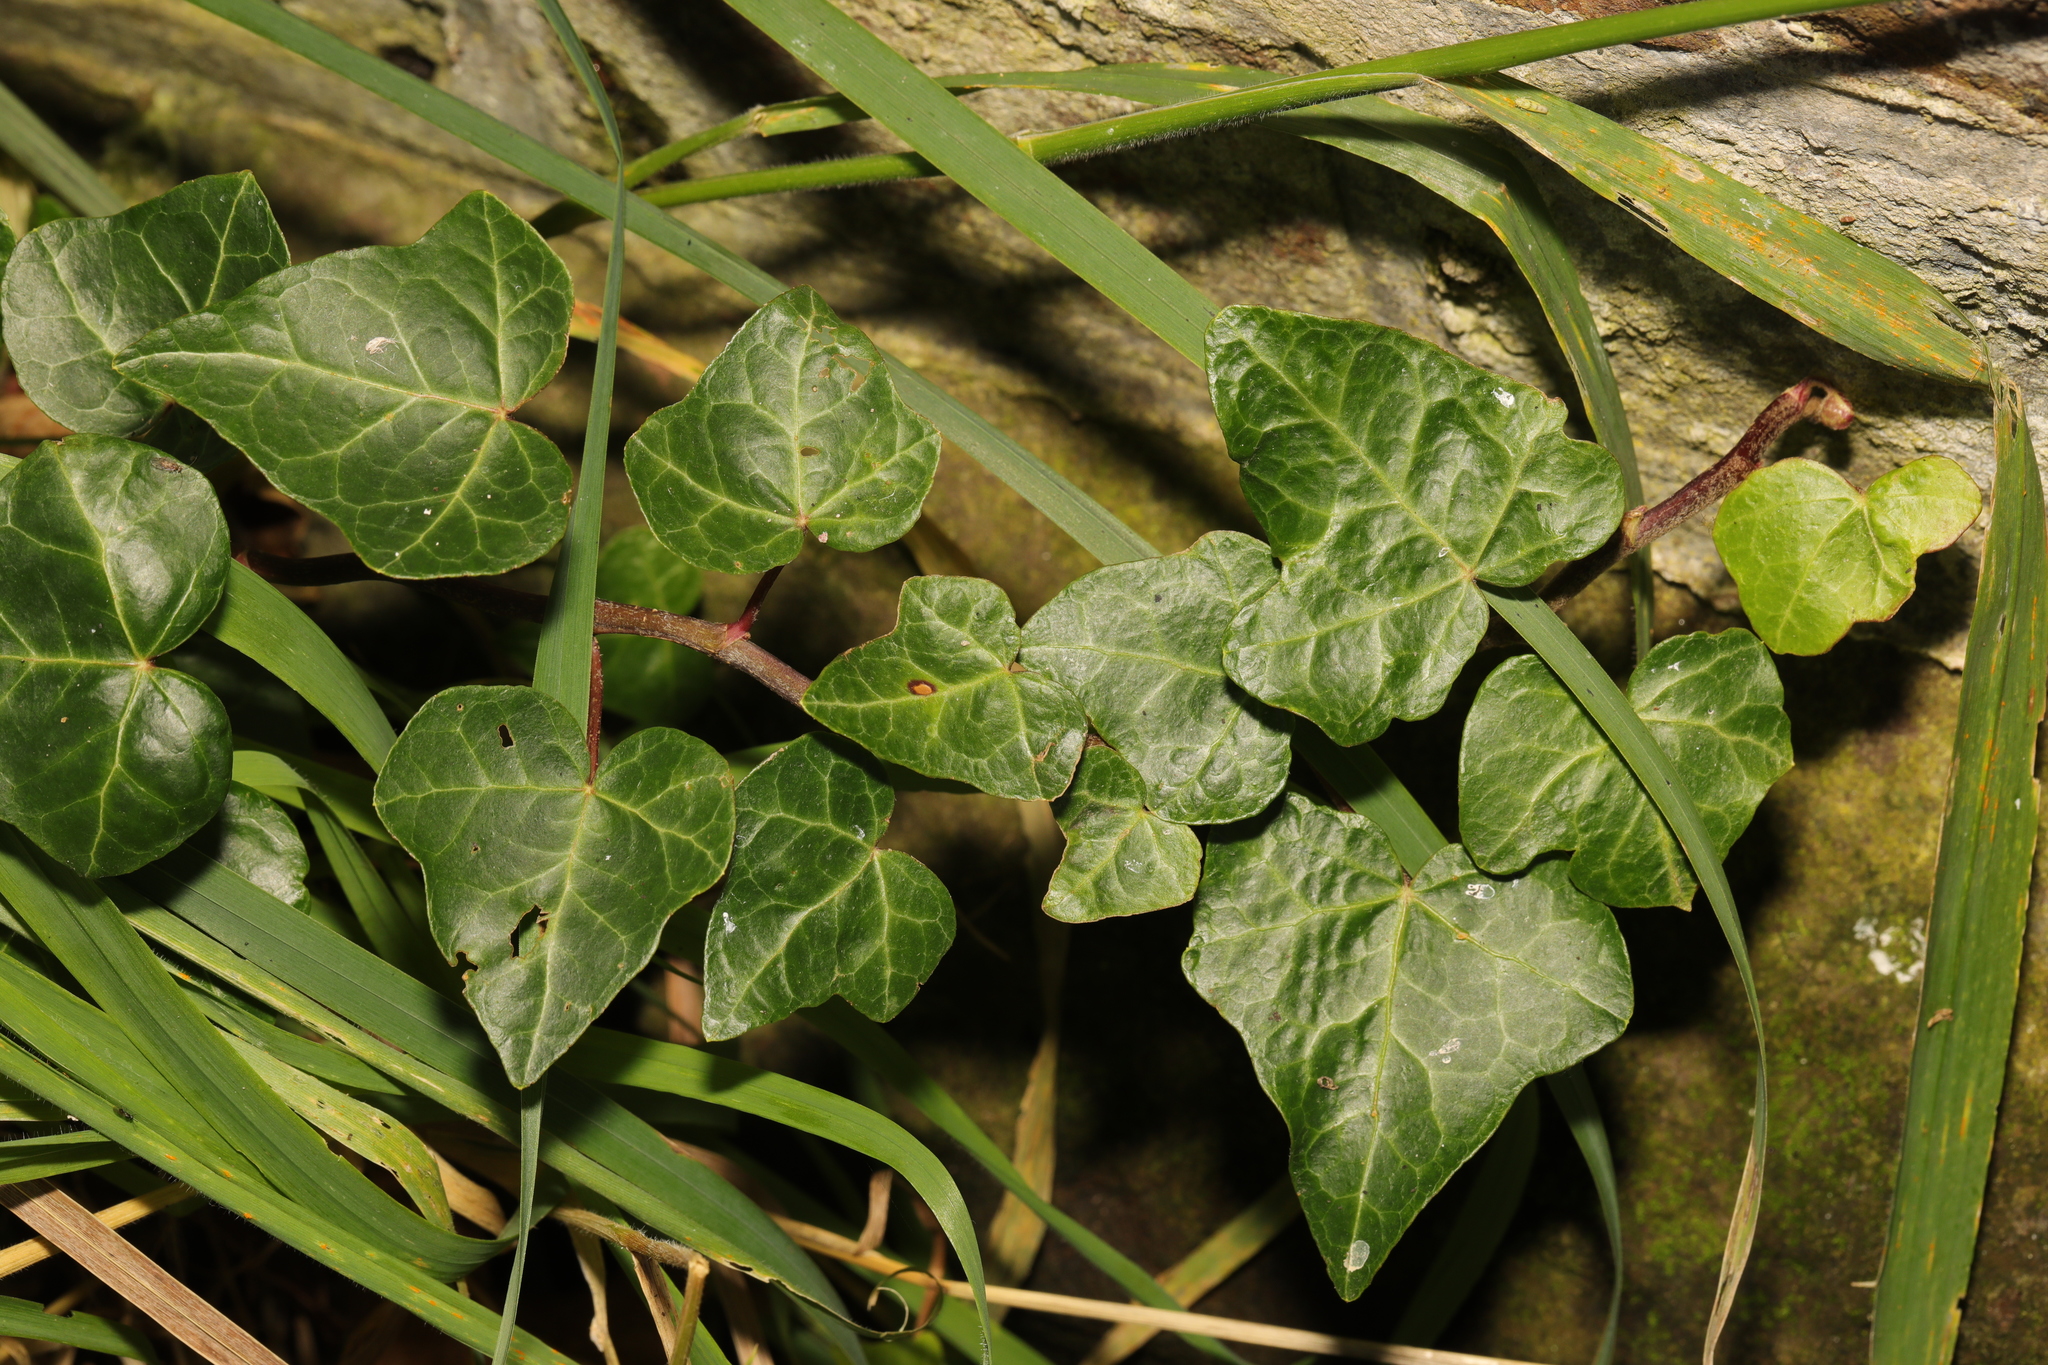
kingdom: Plantae
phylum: Tracheophyta
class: Magnoliopsida
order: Apiales
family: Araliaceae
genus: Hedera
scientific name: Hedera helix
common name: Ivy
